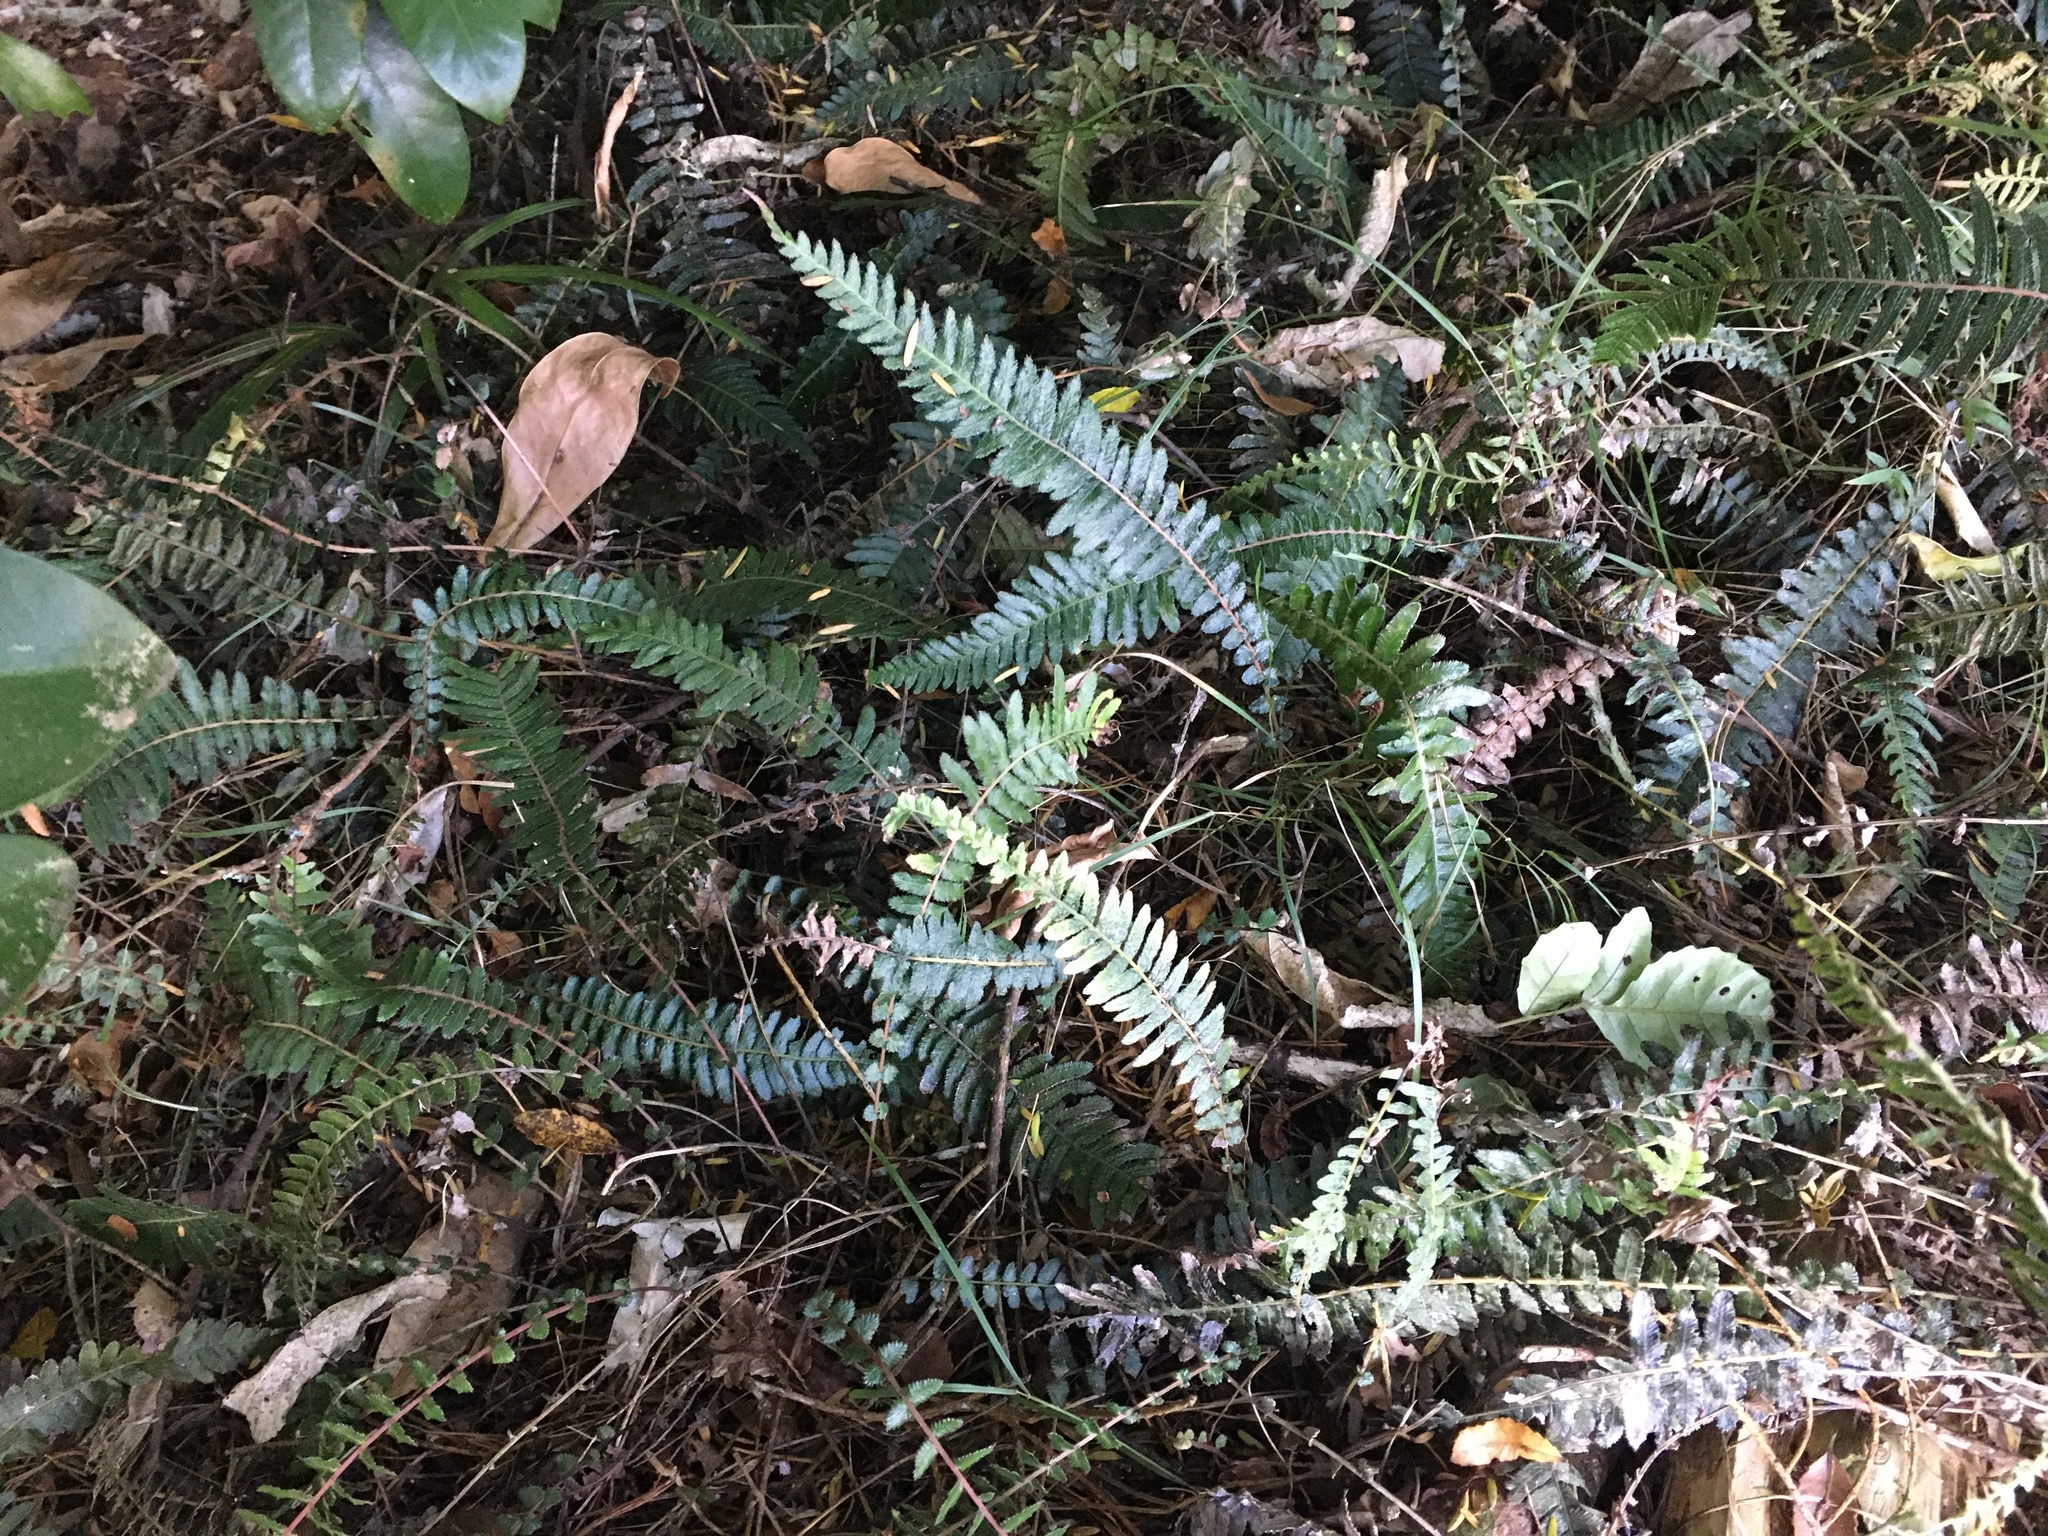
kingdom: Plantae
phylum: Tracheophyta
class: Polypodiopsida
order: Polypodiales
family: Blechnaceae
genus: Doodia
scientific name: Doodia australis
